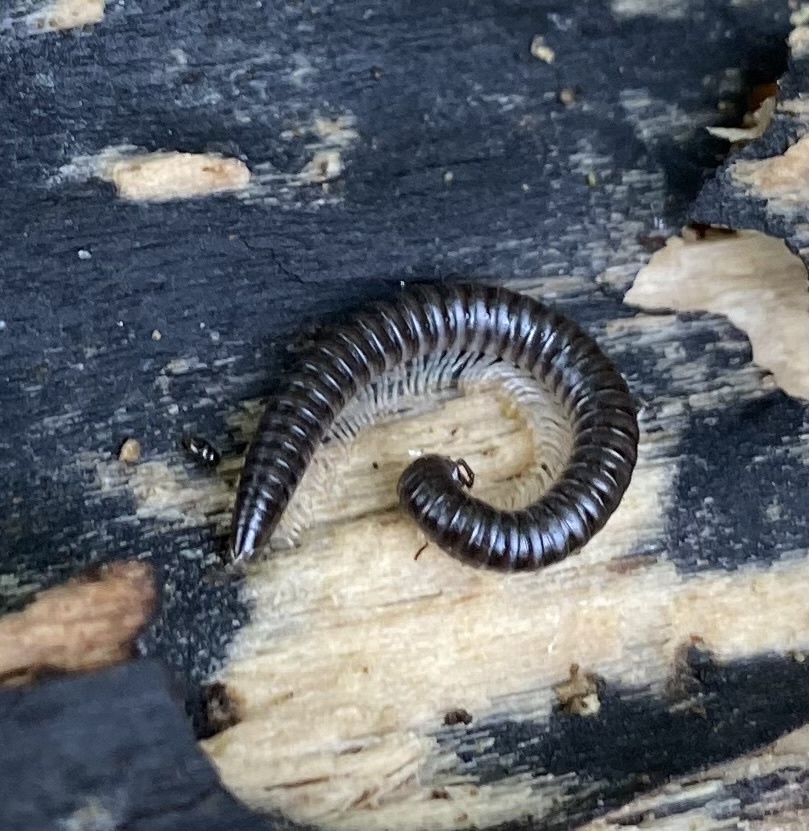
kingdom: Animalia
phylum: Arthropoda
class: Diplopoda
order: Julida
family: Julidae
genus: Tachypodoiulus
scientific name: Tachypodoiulus niger
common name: White-legged snake millipede
